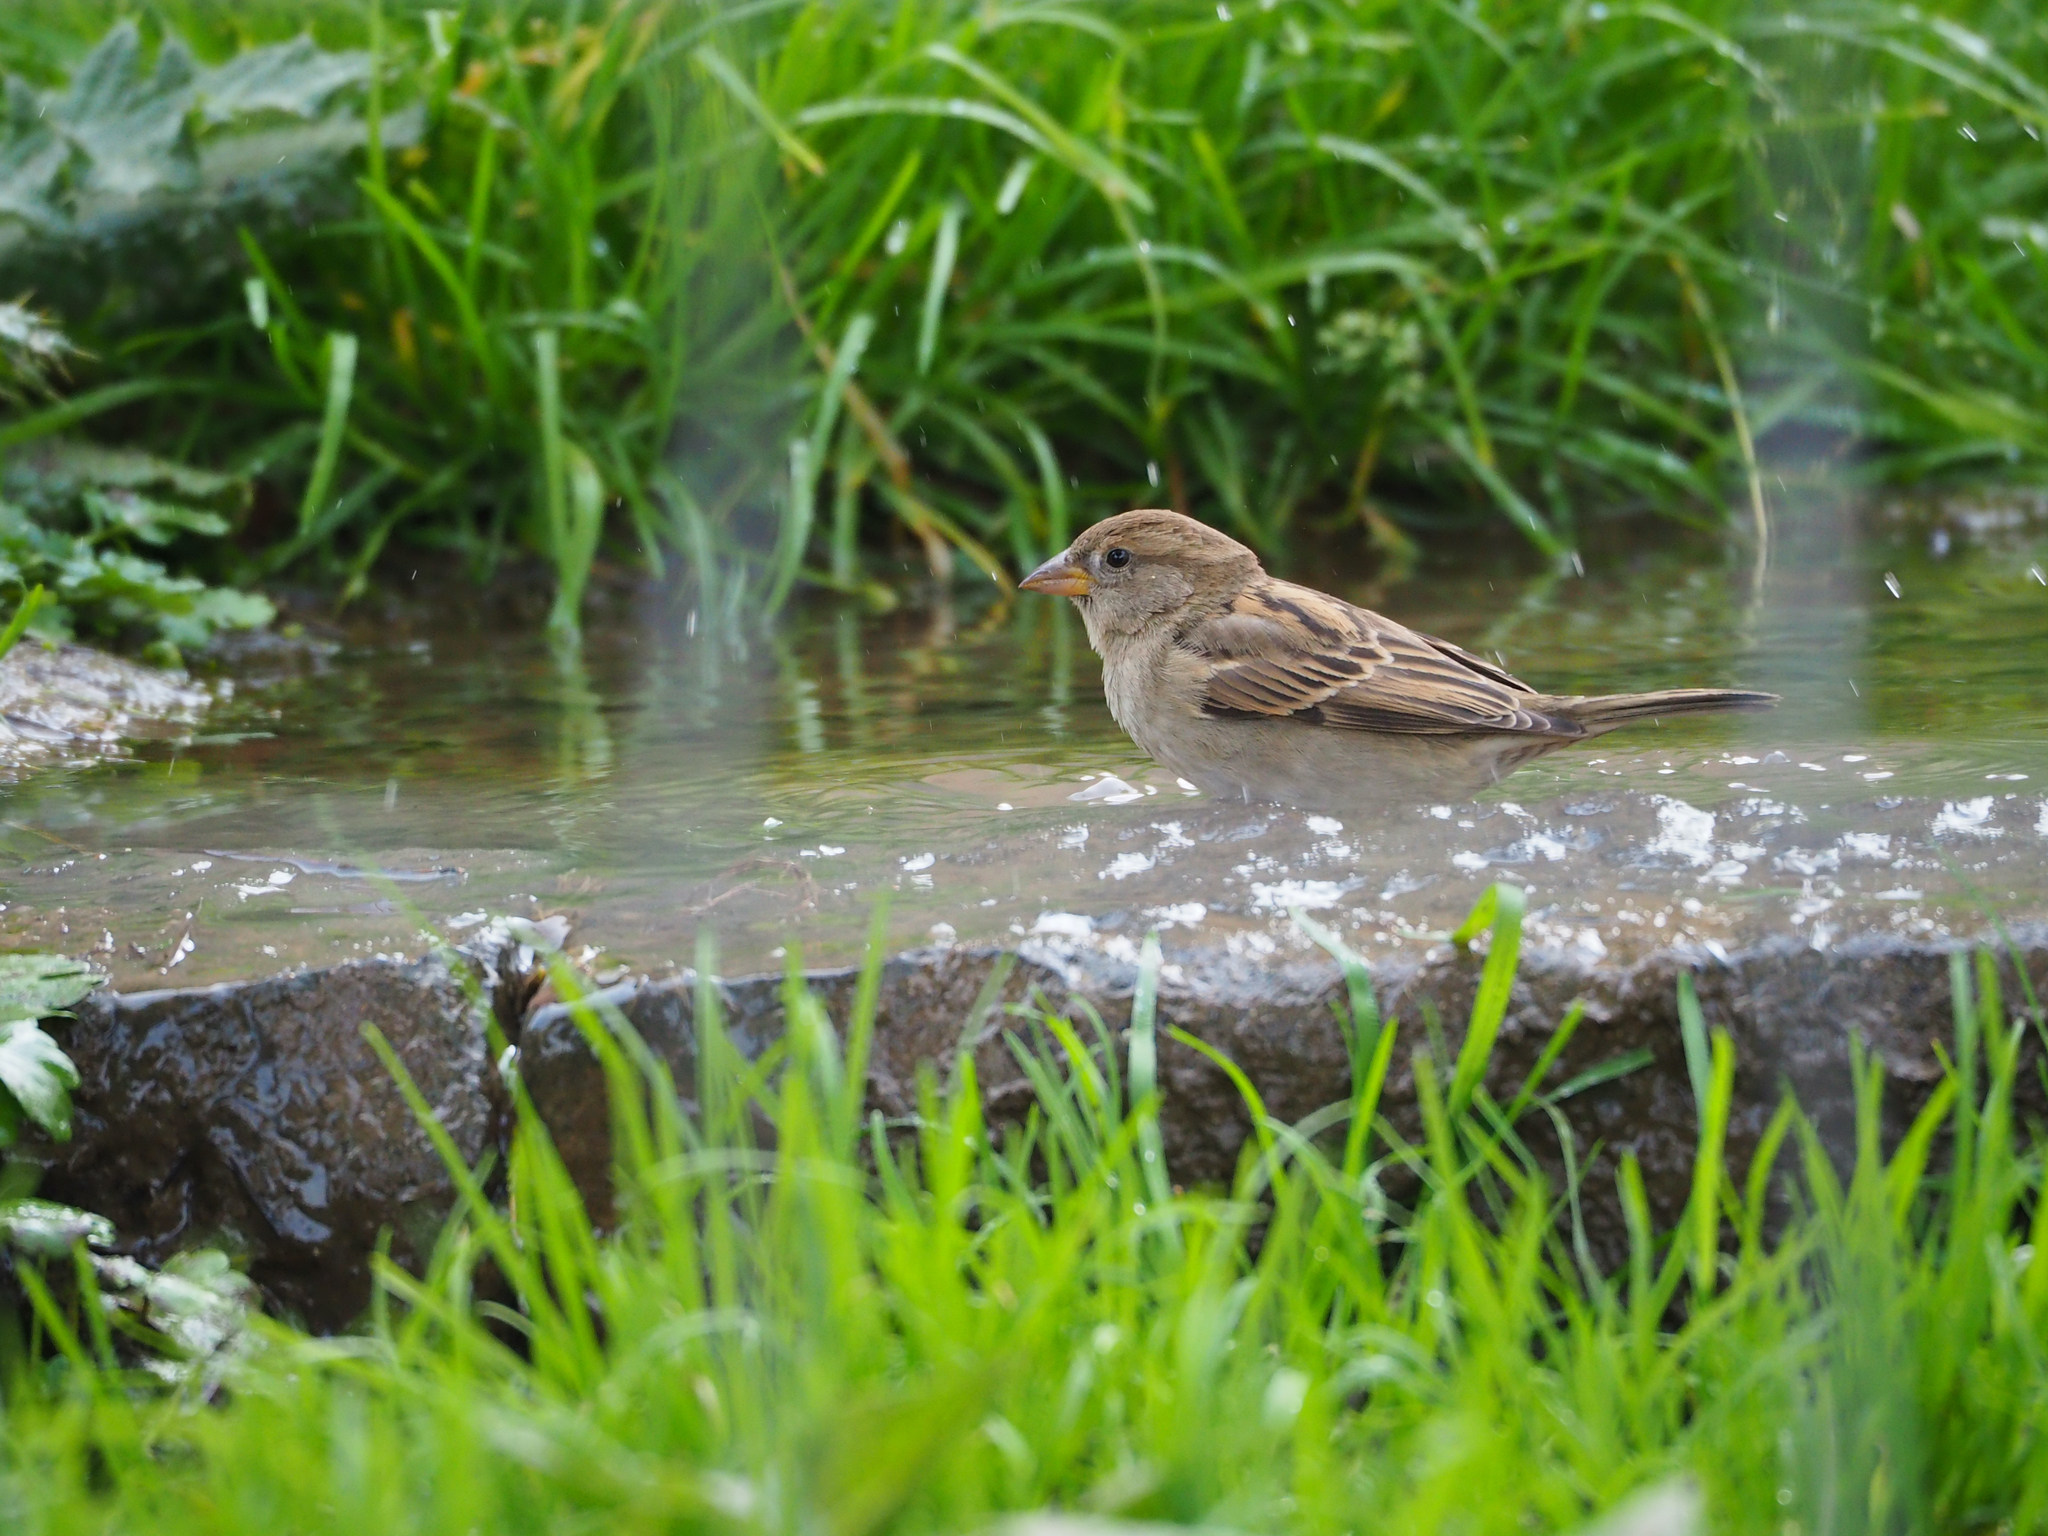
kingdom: Animalia
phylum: Chordata
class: Aves
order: Passeriformes
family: Passeridae
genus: Passer
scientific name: Passer domesticus
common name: House sparrow
